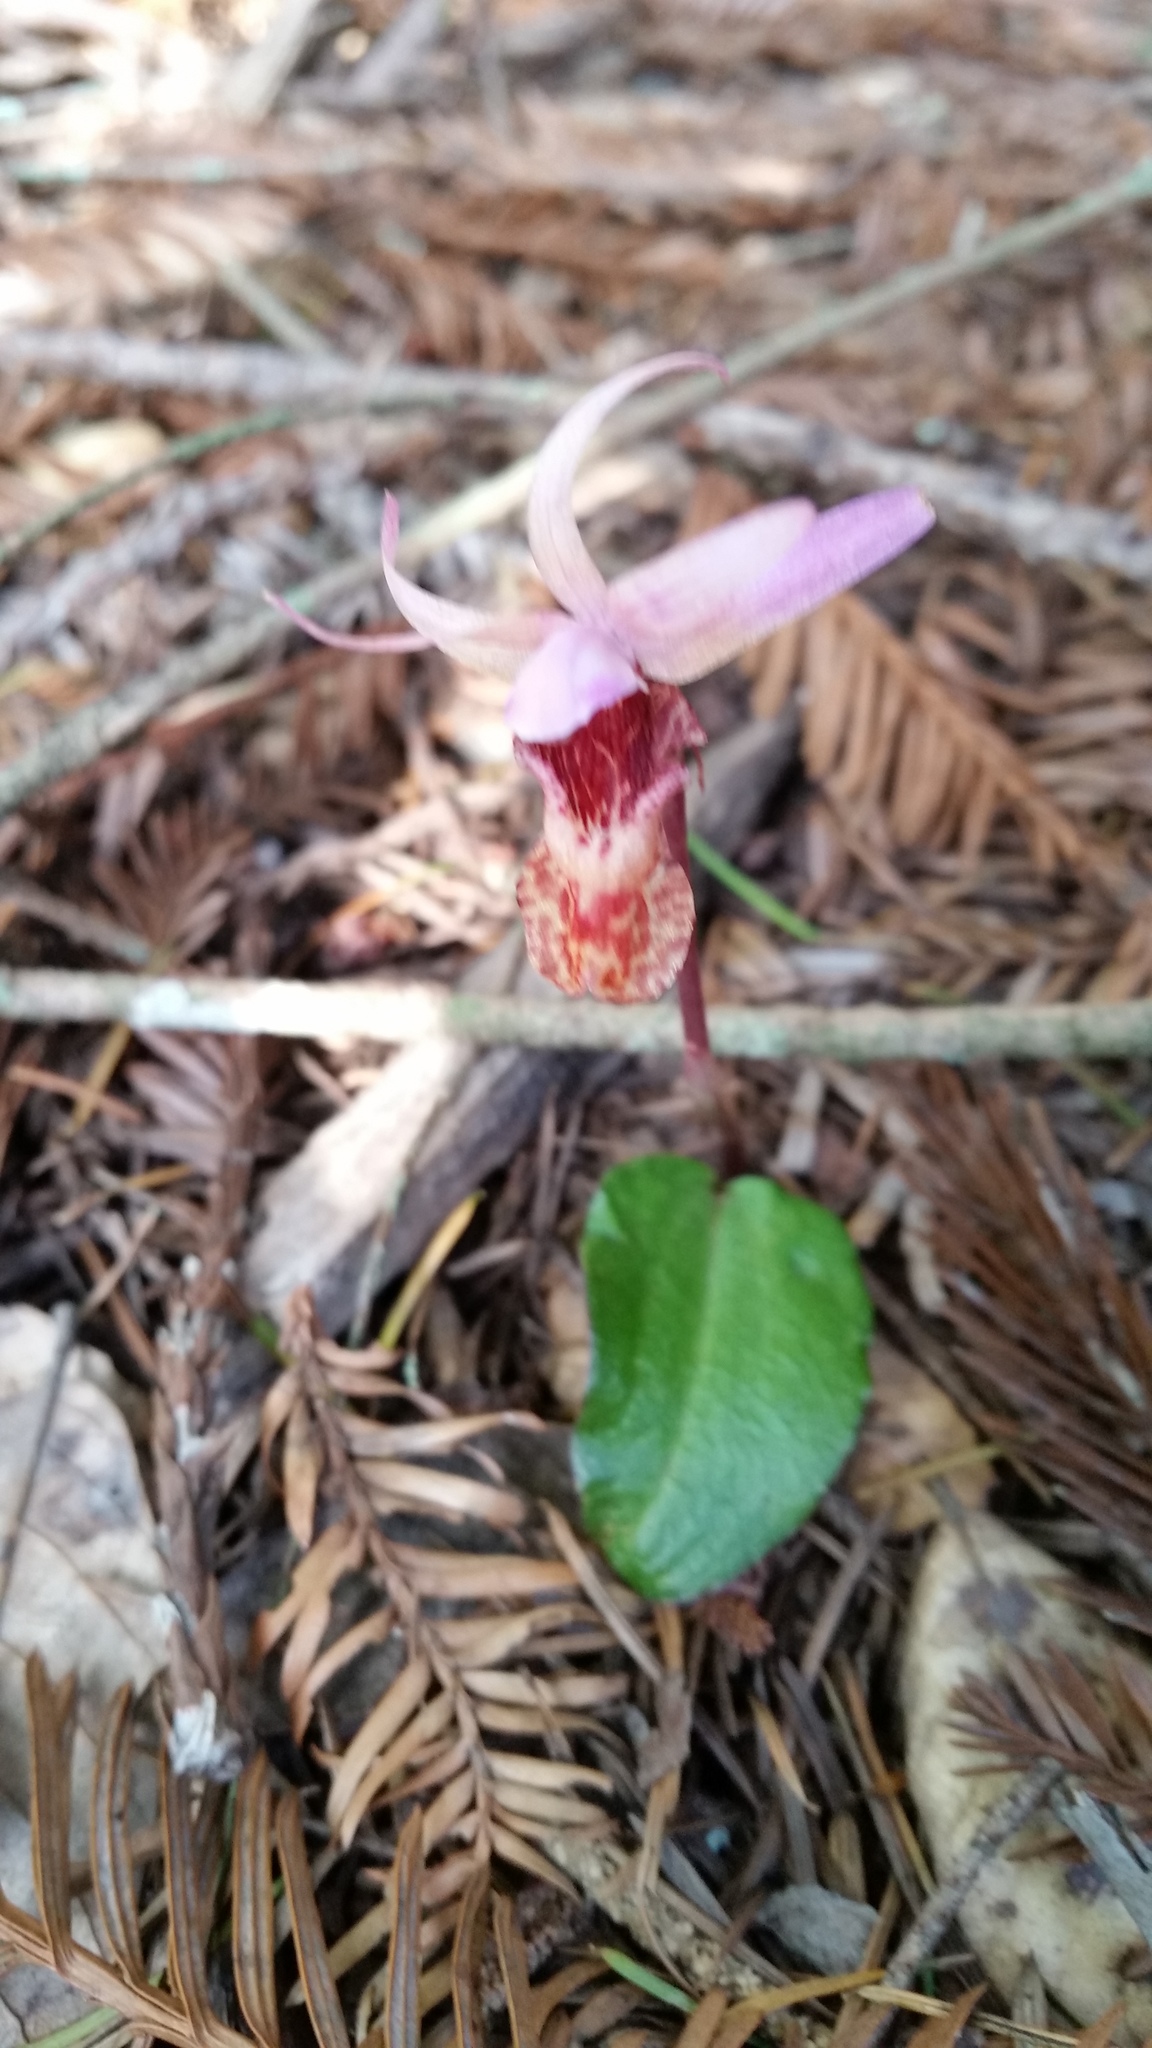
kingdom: Plantae
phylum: Tracheophyta
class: Liliopsida
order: Asparagales
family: Orchidaceae
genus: Calypso
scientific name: Calypso bulbosa
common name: Calypso
